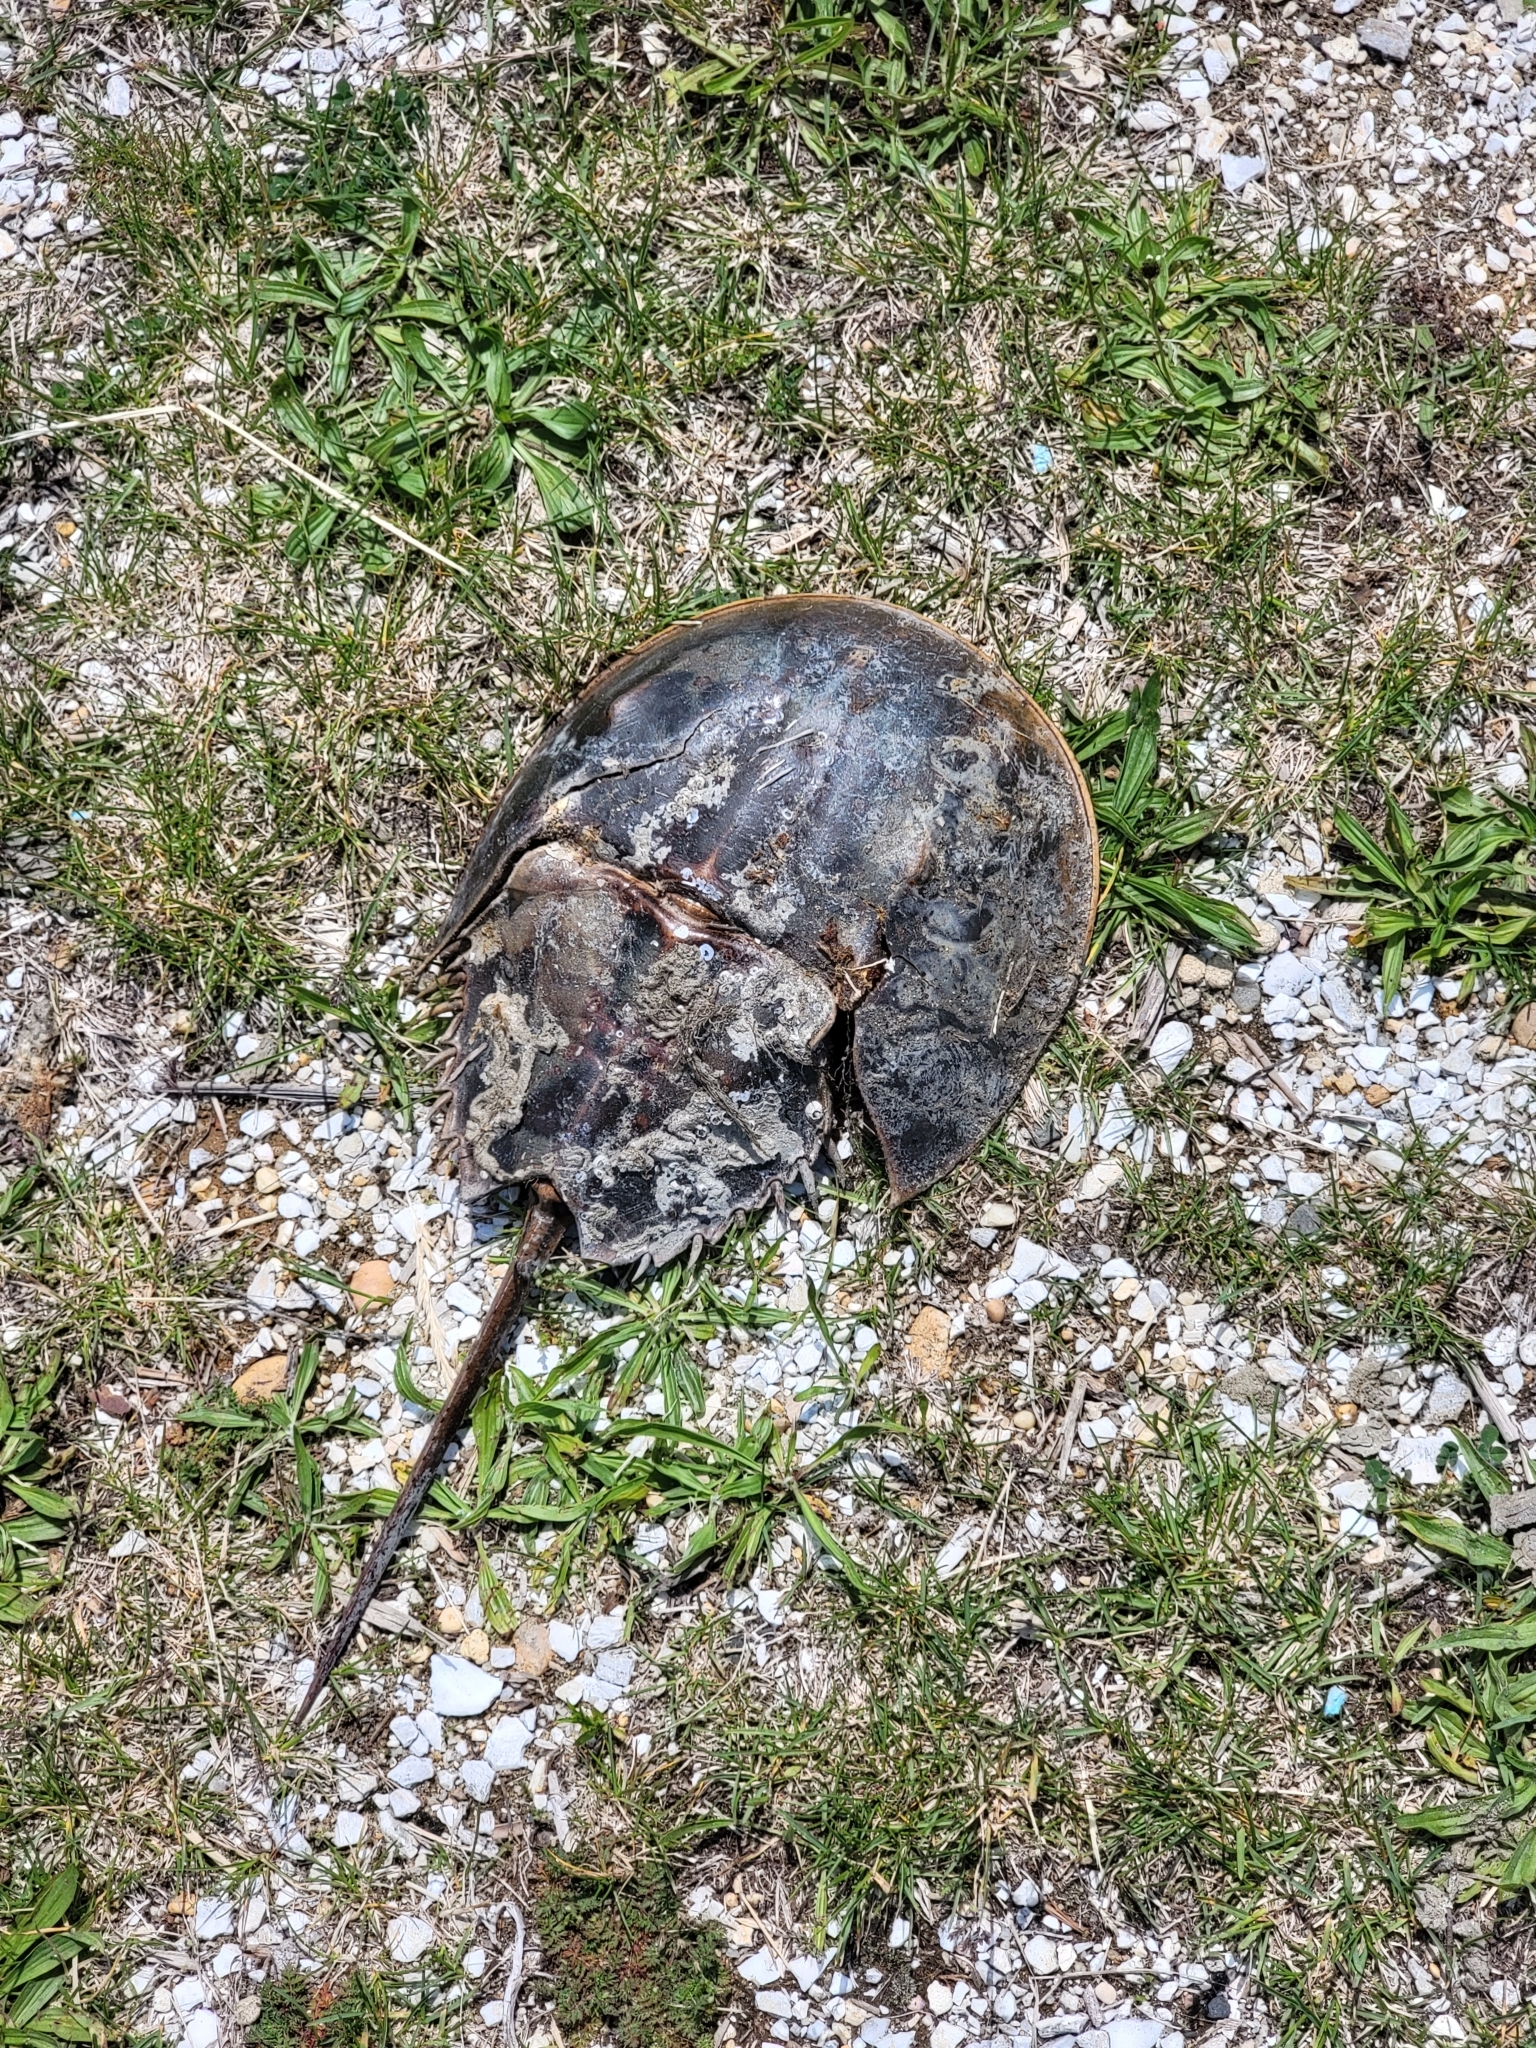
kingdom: Animalia
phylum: Arthropoda
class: Merostomata
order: Xiphosurida
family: Limulidae
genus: Limulus
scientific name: Limulus polyphemus
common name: Horseshoe crab
